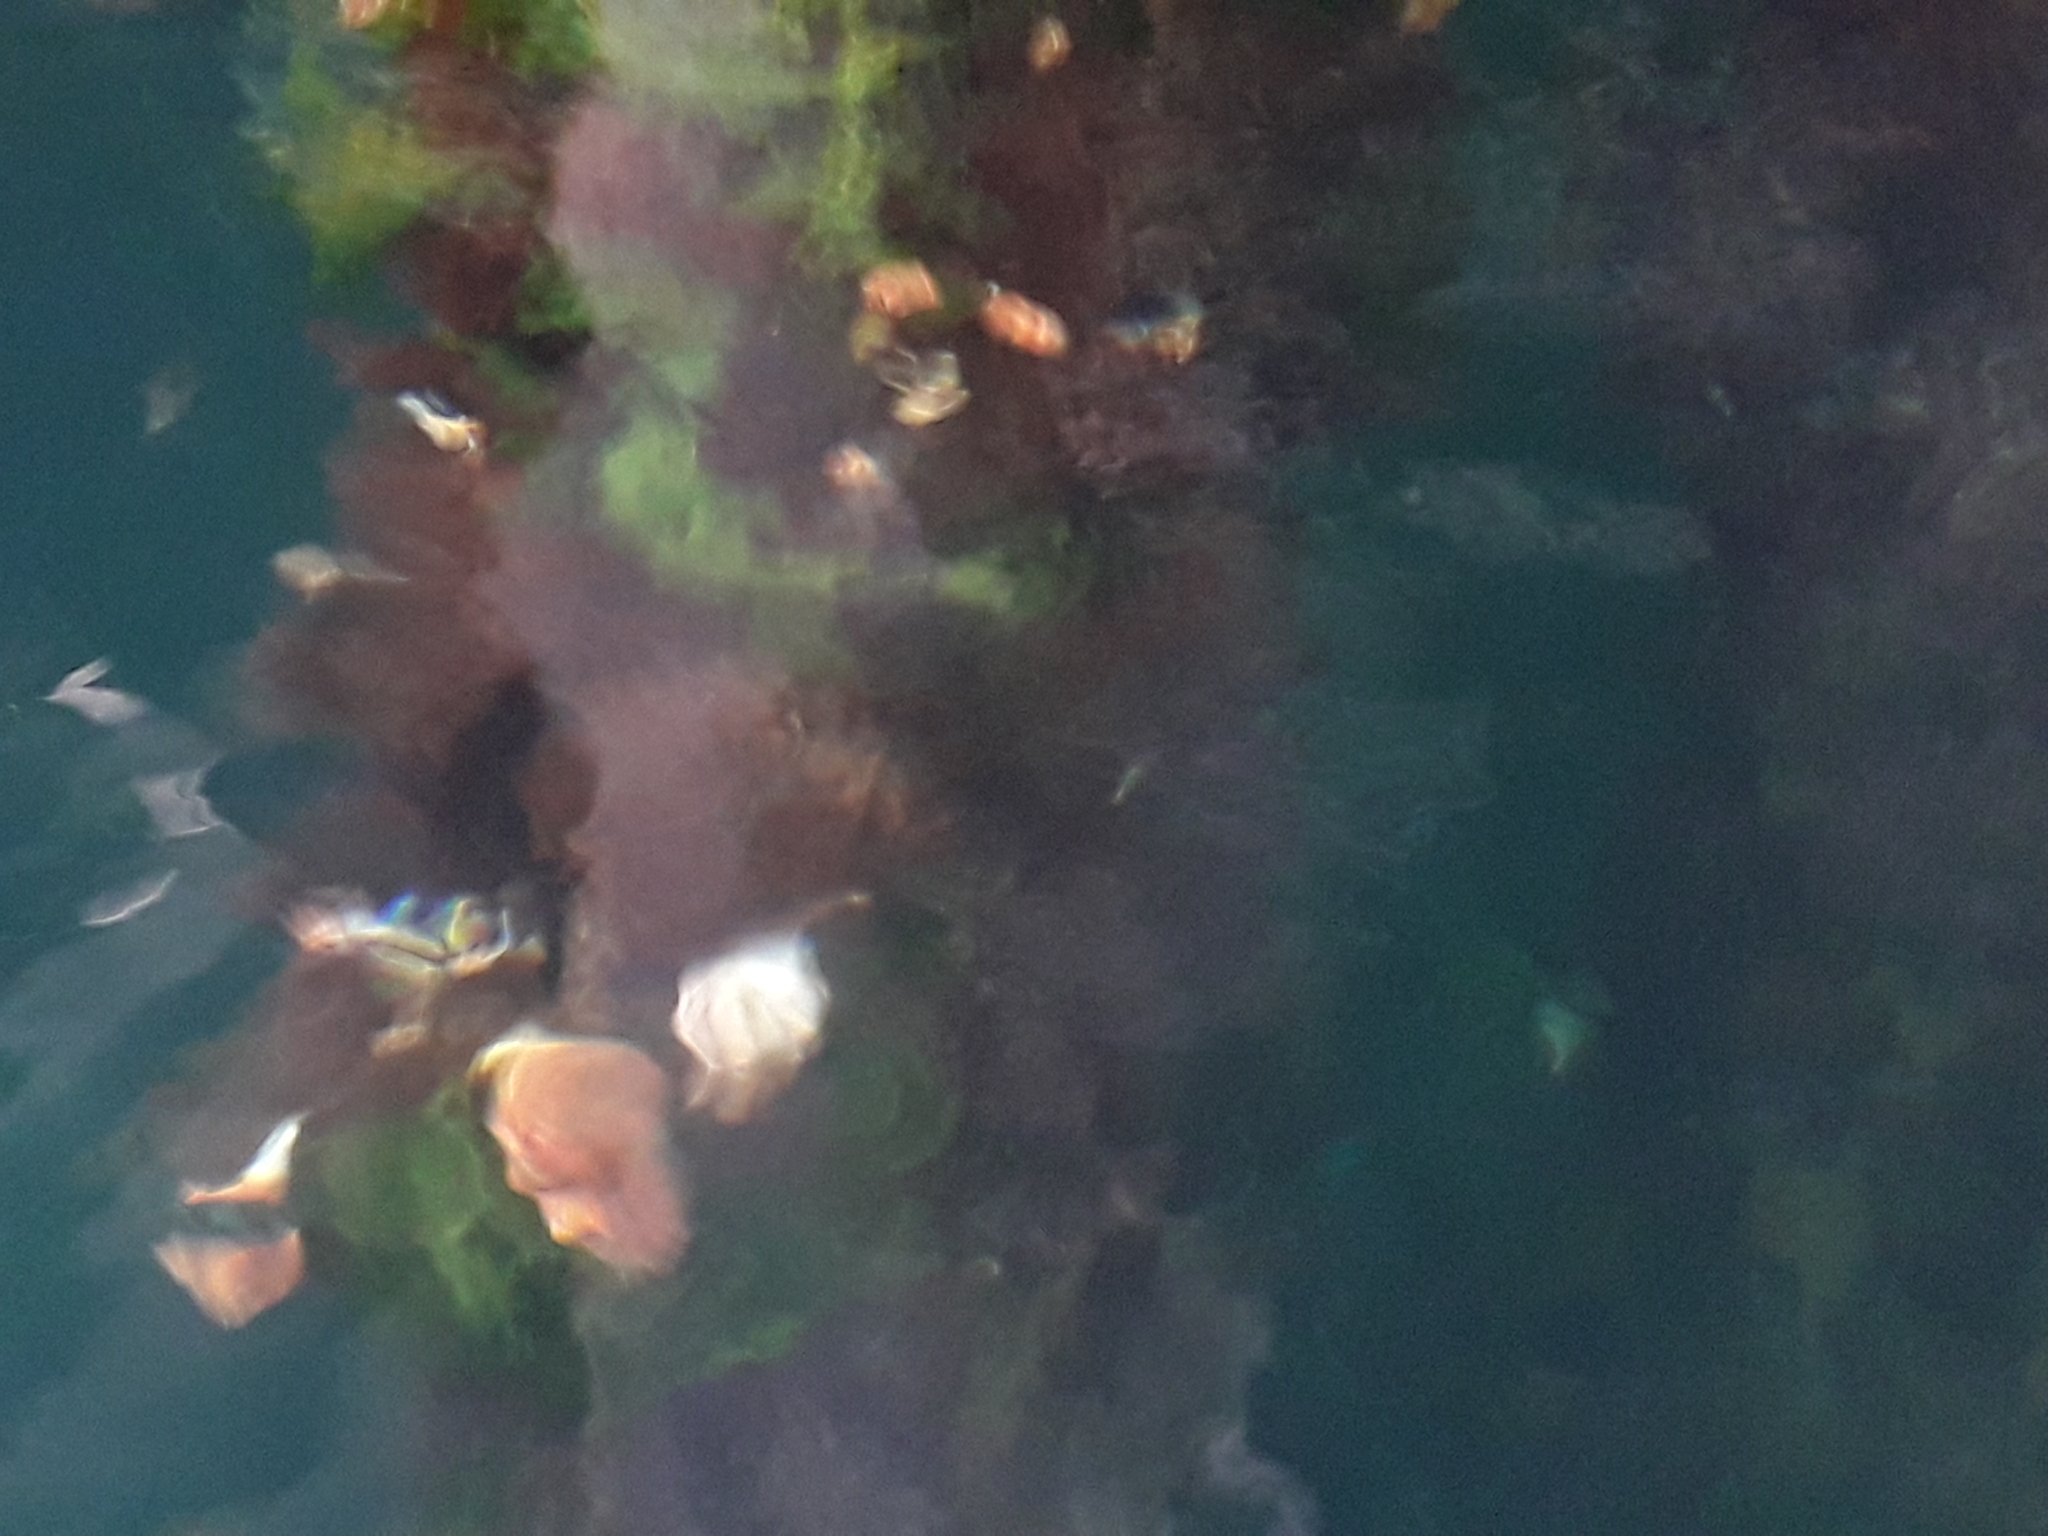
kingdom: Animalia
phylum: Chordata
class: Ascidiacea
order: Stolidobranchia
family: Pyuridae
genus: Pyura
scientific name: Pyura pachydermatina
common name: Sea tulip
